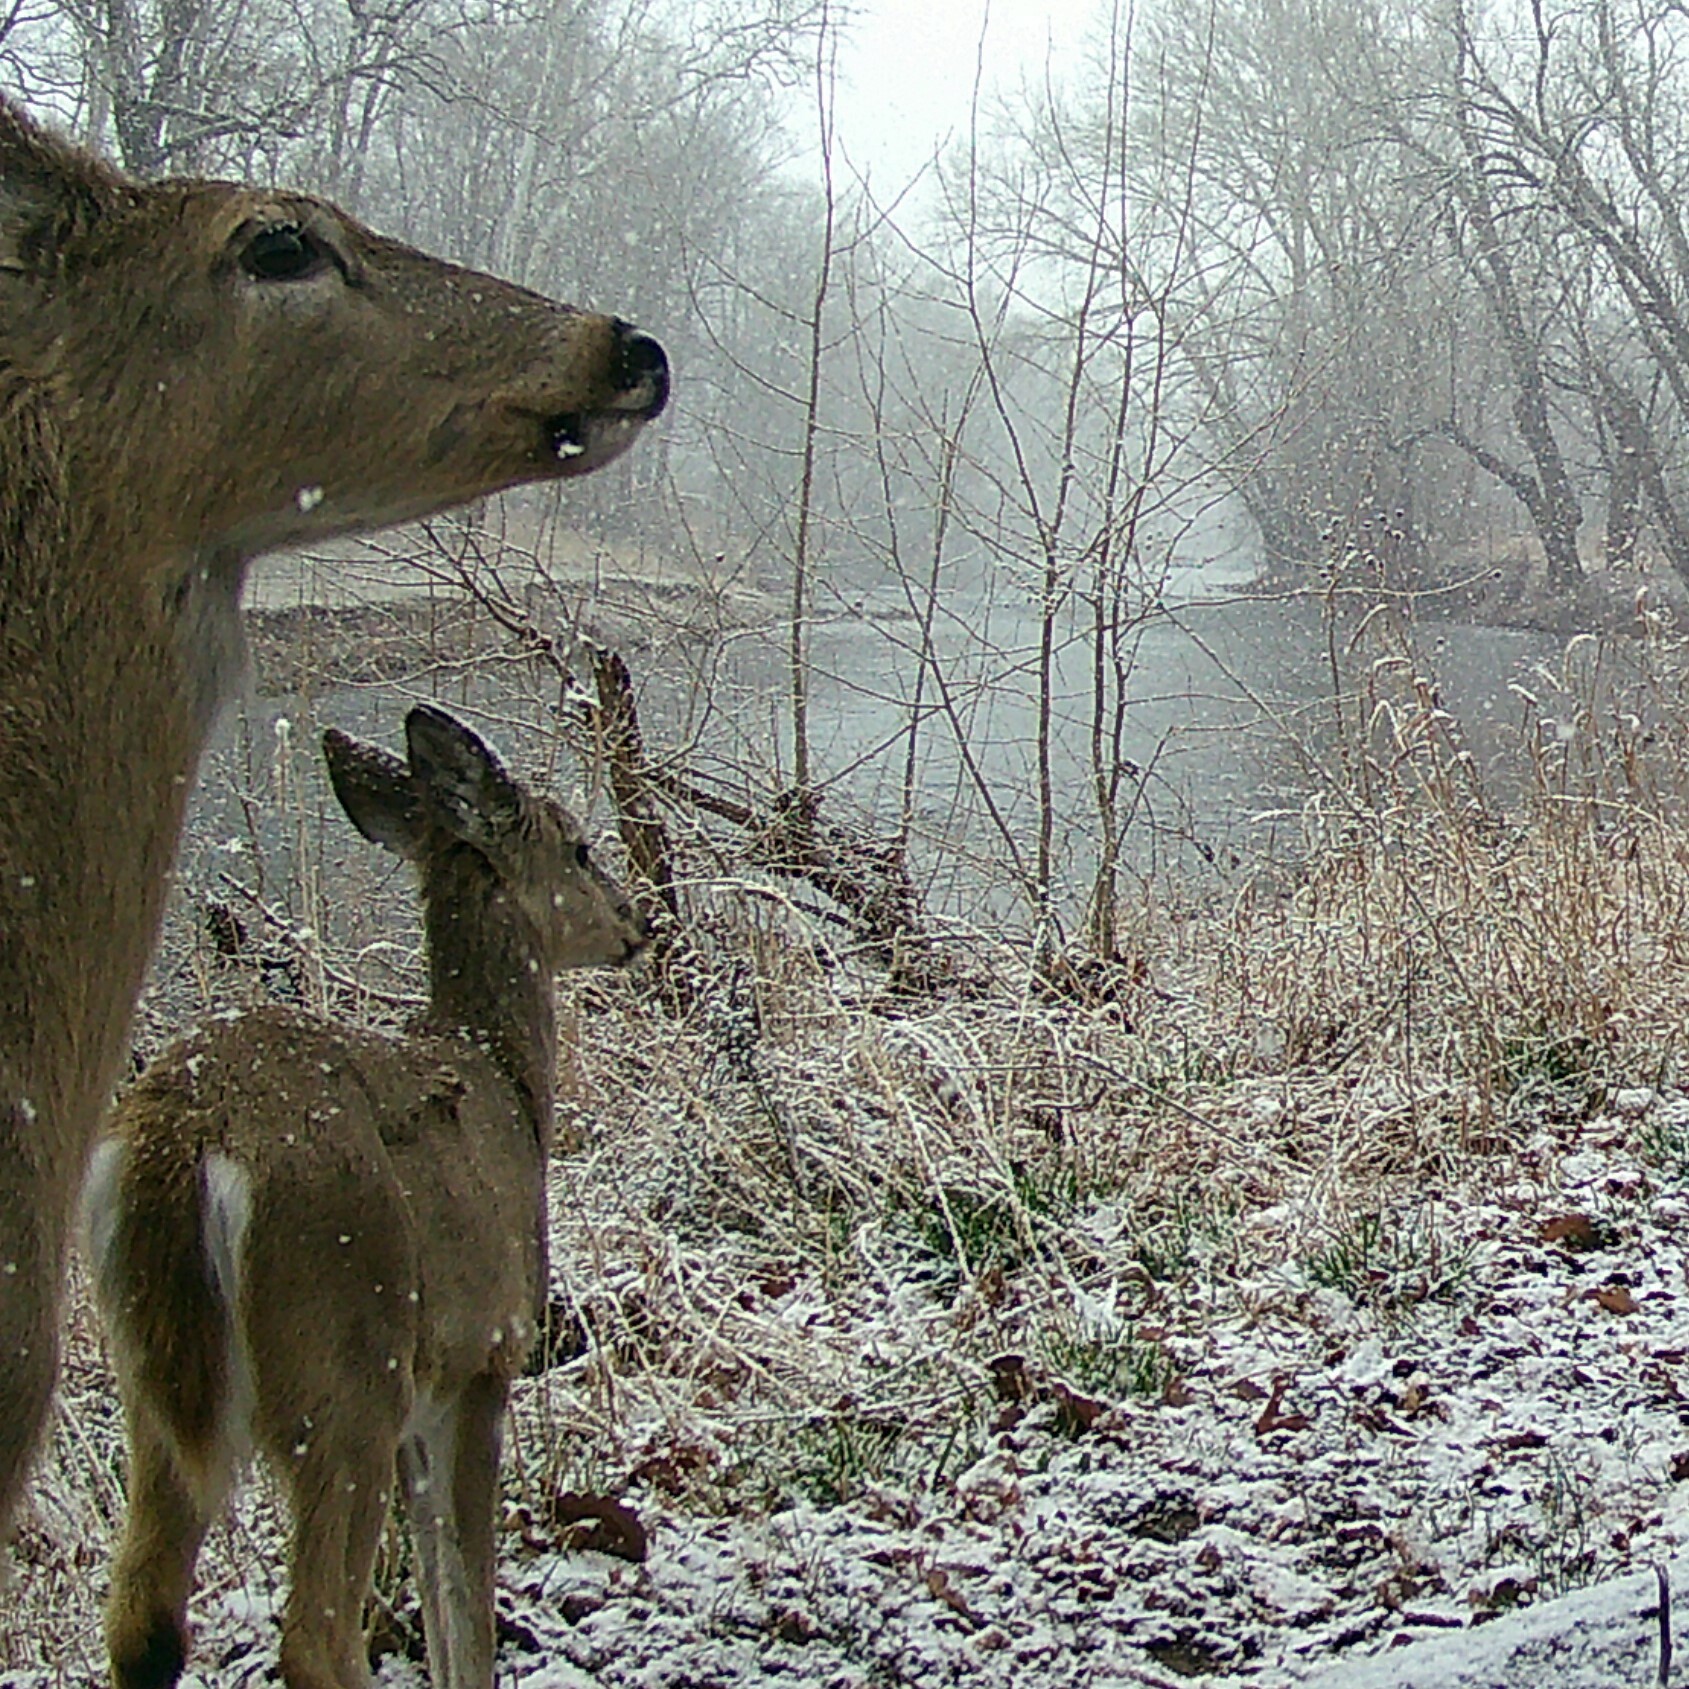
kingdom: Animalia
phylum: Chordata
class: Mammalia
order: Artiodactyla
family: Cervidae
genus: Odocoileus
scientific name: Odocoileus virginianus
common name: White-tailed deer
